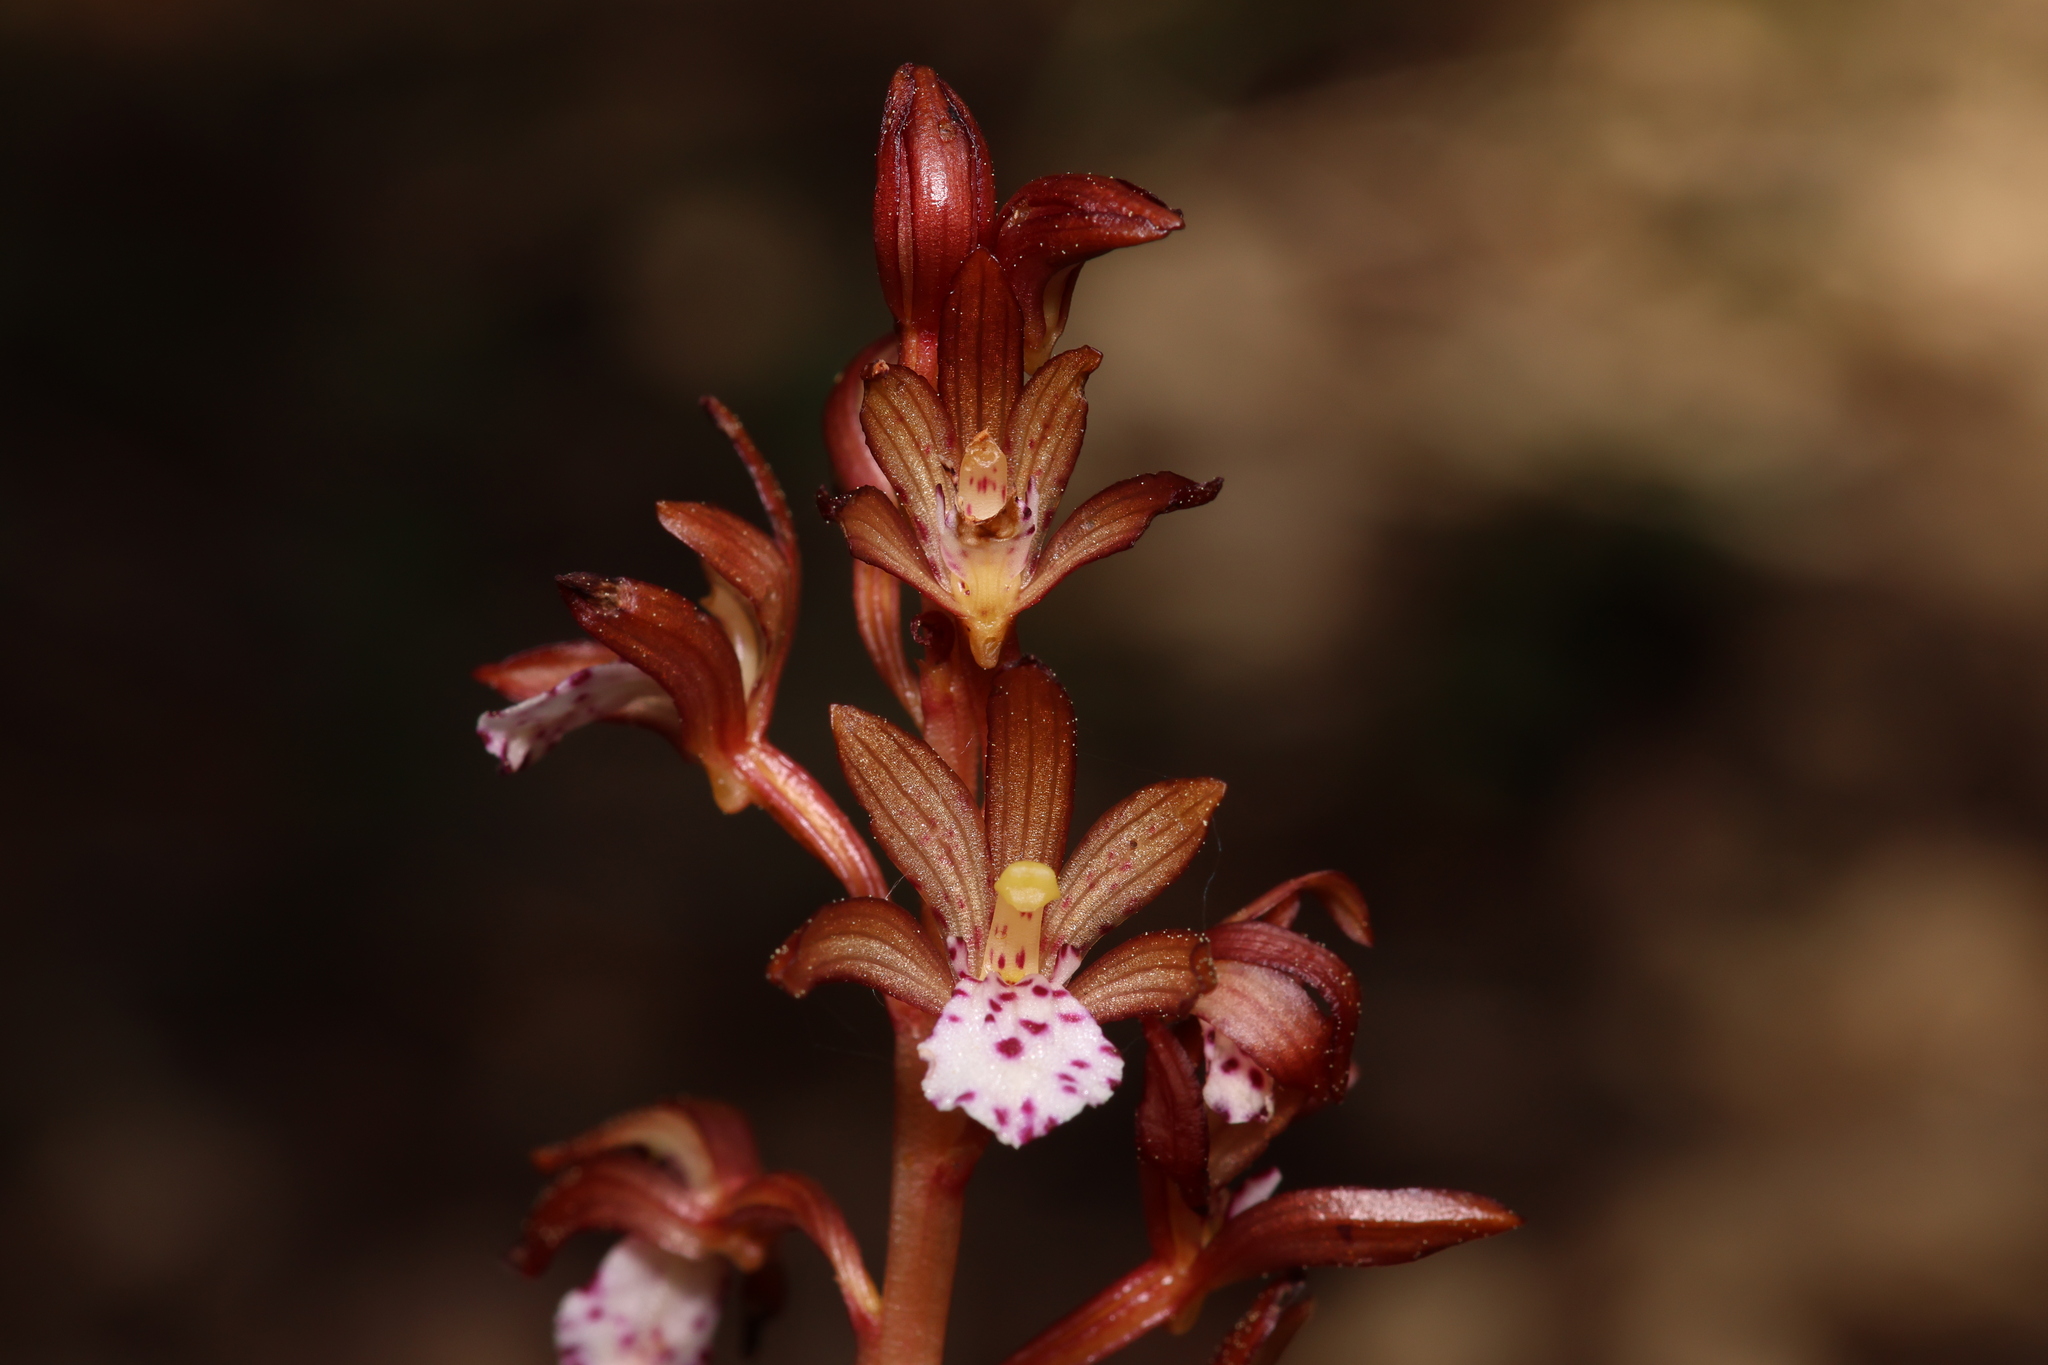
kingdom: Plantae
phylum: Tracheophyta
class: Liliopsida
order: Asparagales
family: Orchidaceae
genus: Corallorhiza
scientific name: Corallorhiza maculata
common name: Spotted coralroot
